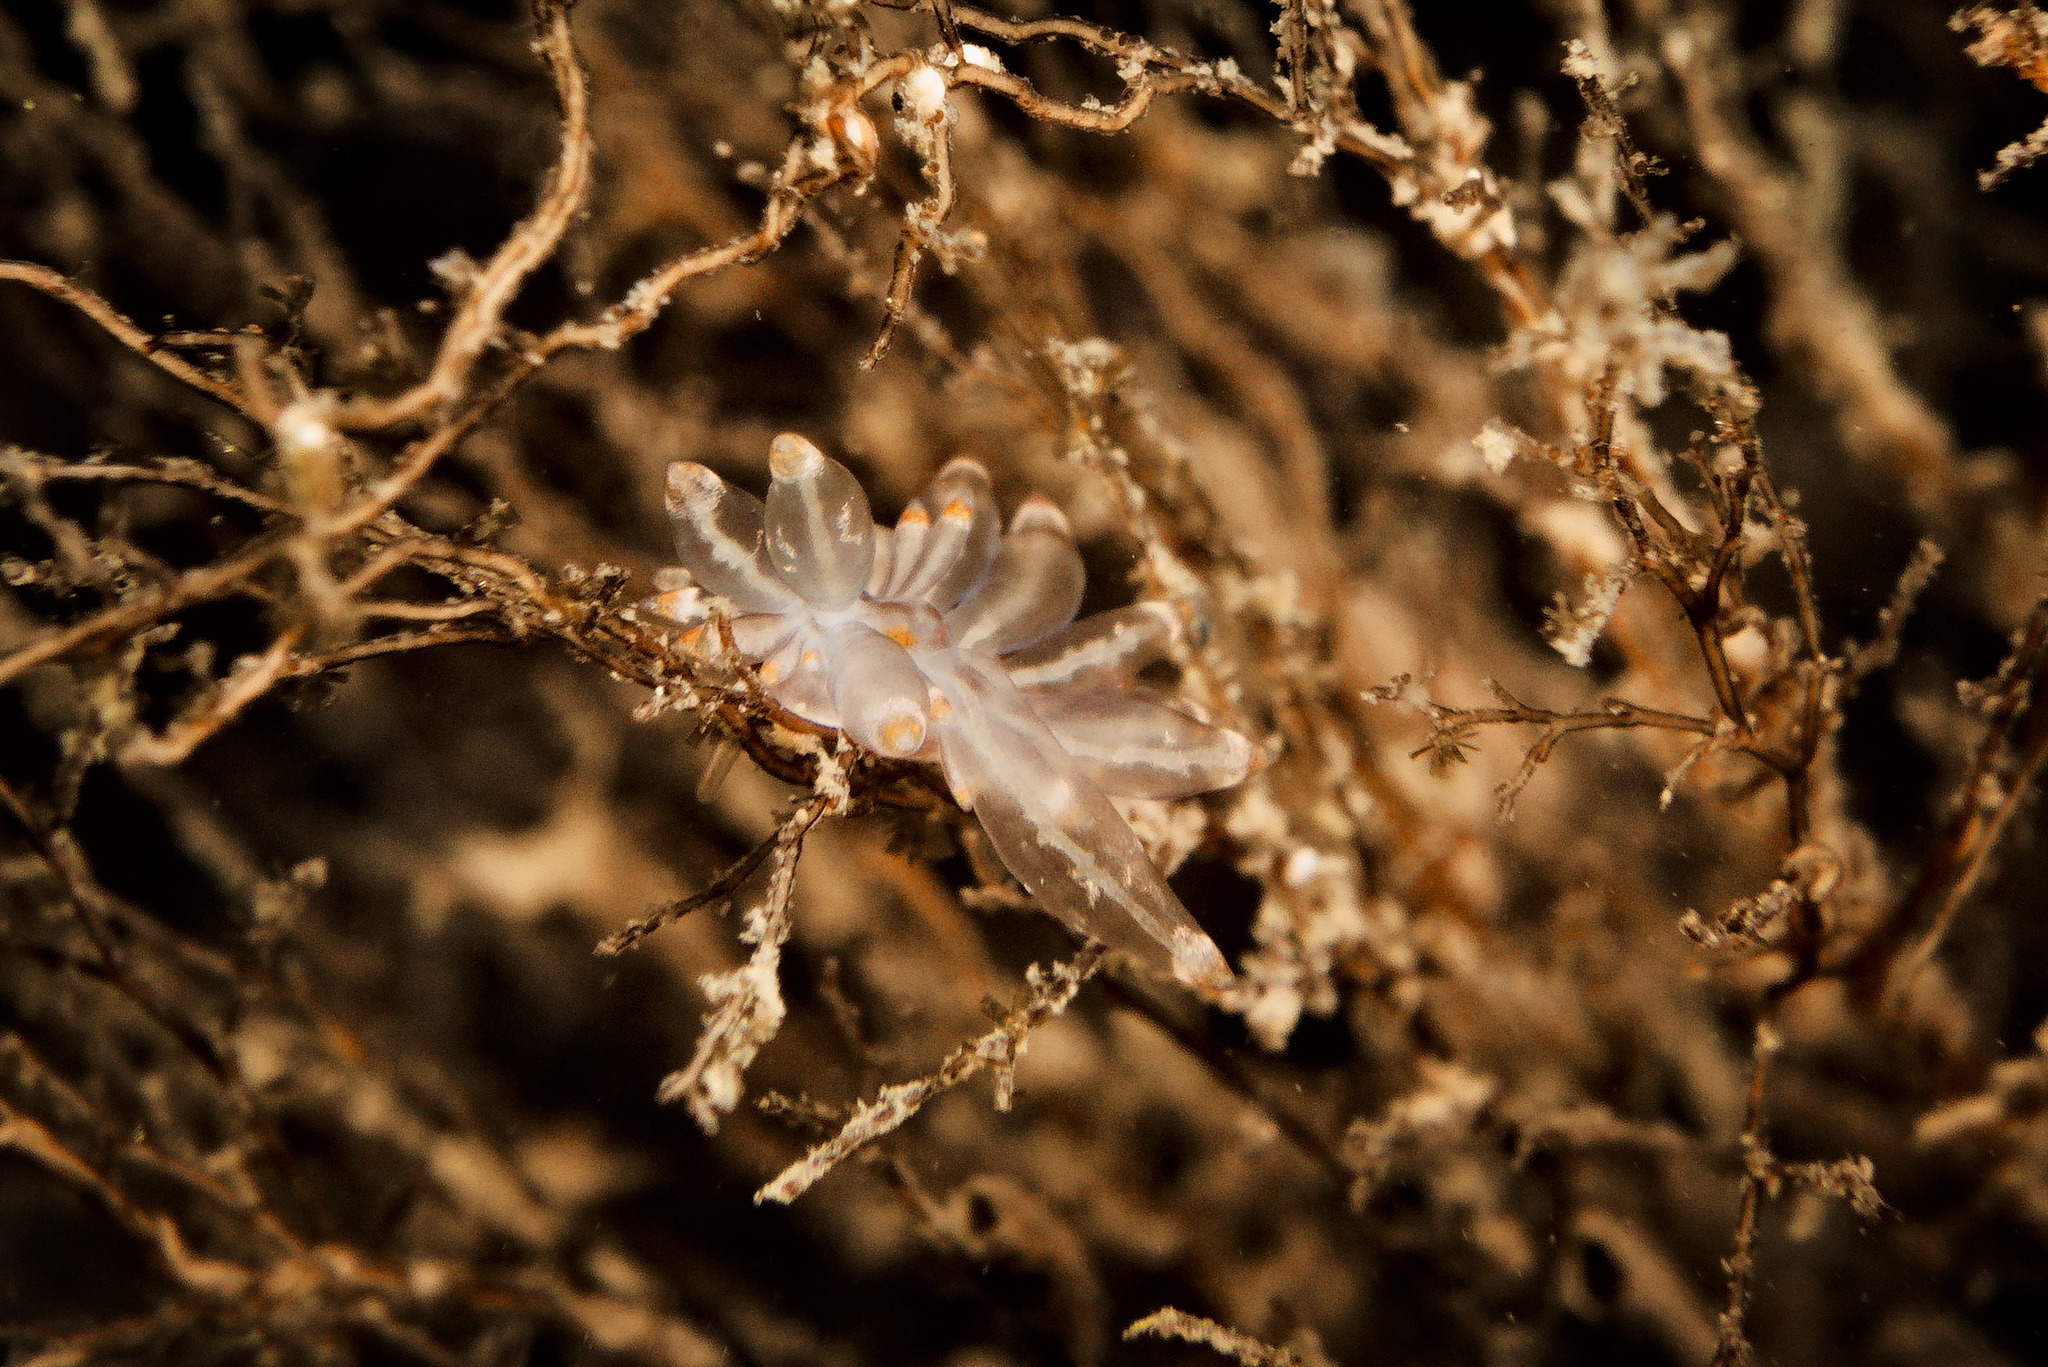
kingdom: Animalia
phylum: Mollusca
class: Gastropoda
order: Nudibranchia
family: Eubranchidae
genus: Amphorina
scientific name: Amphorina viriola
